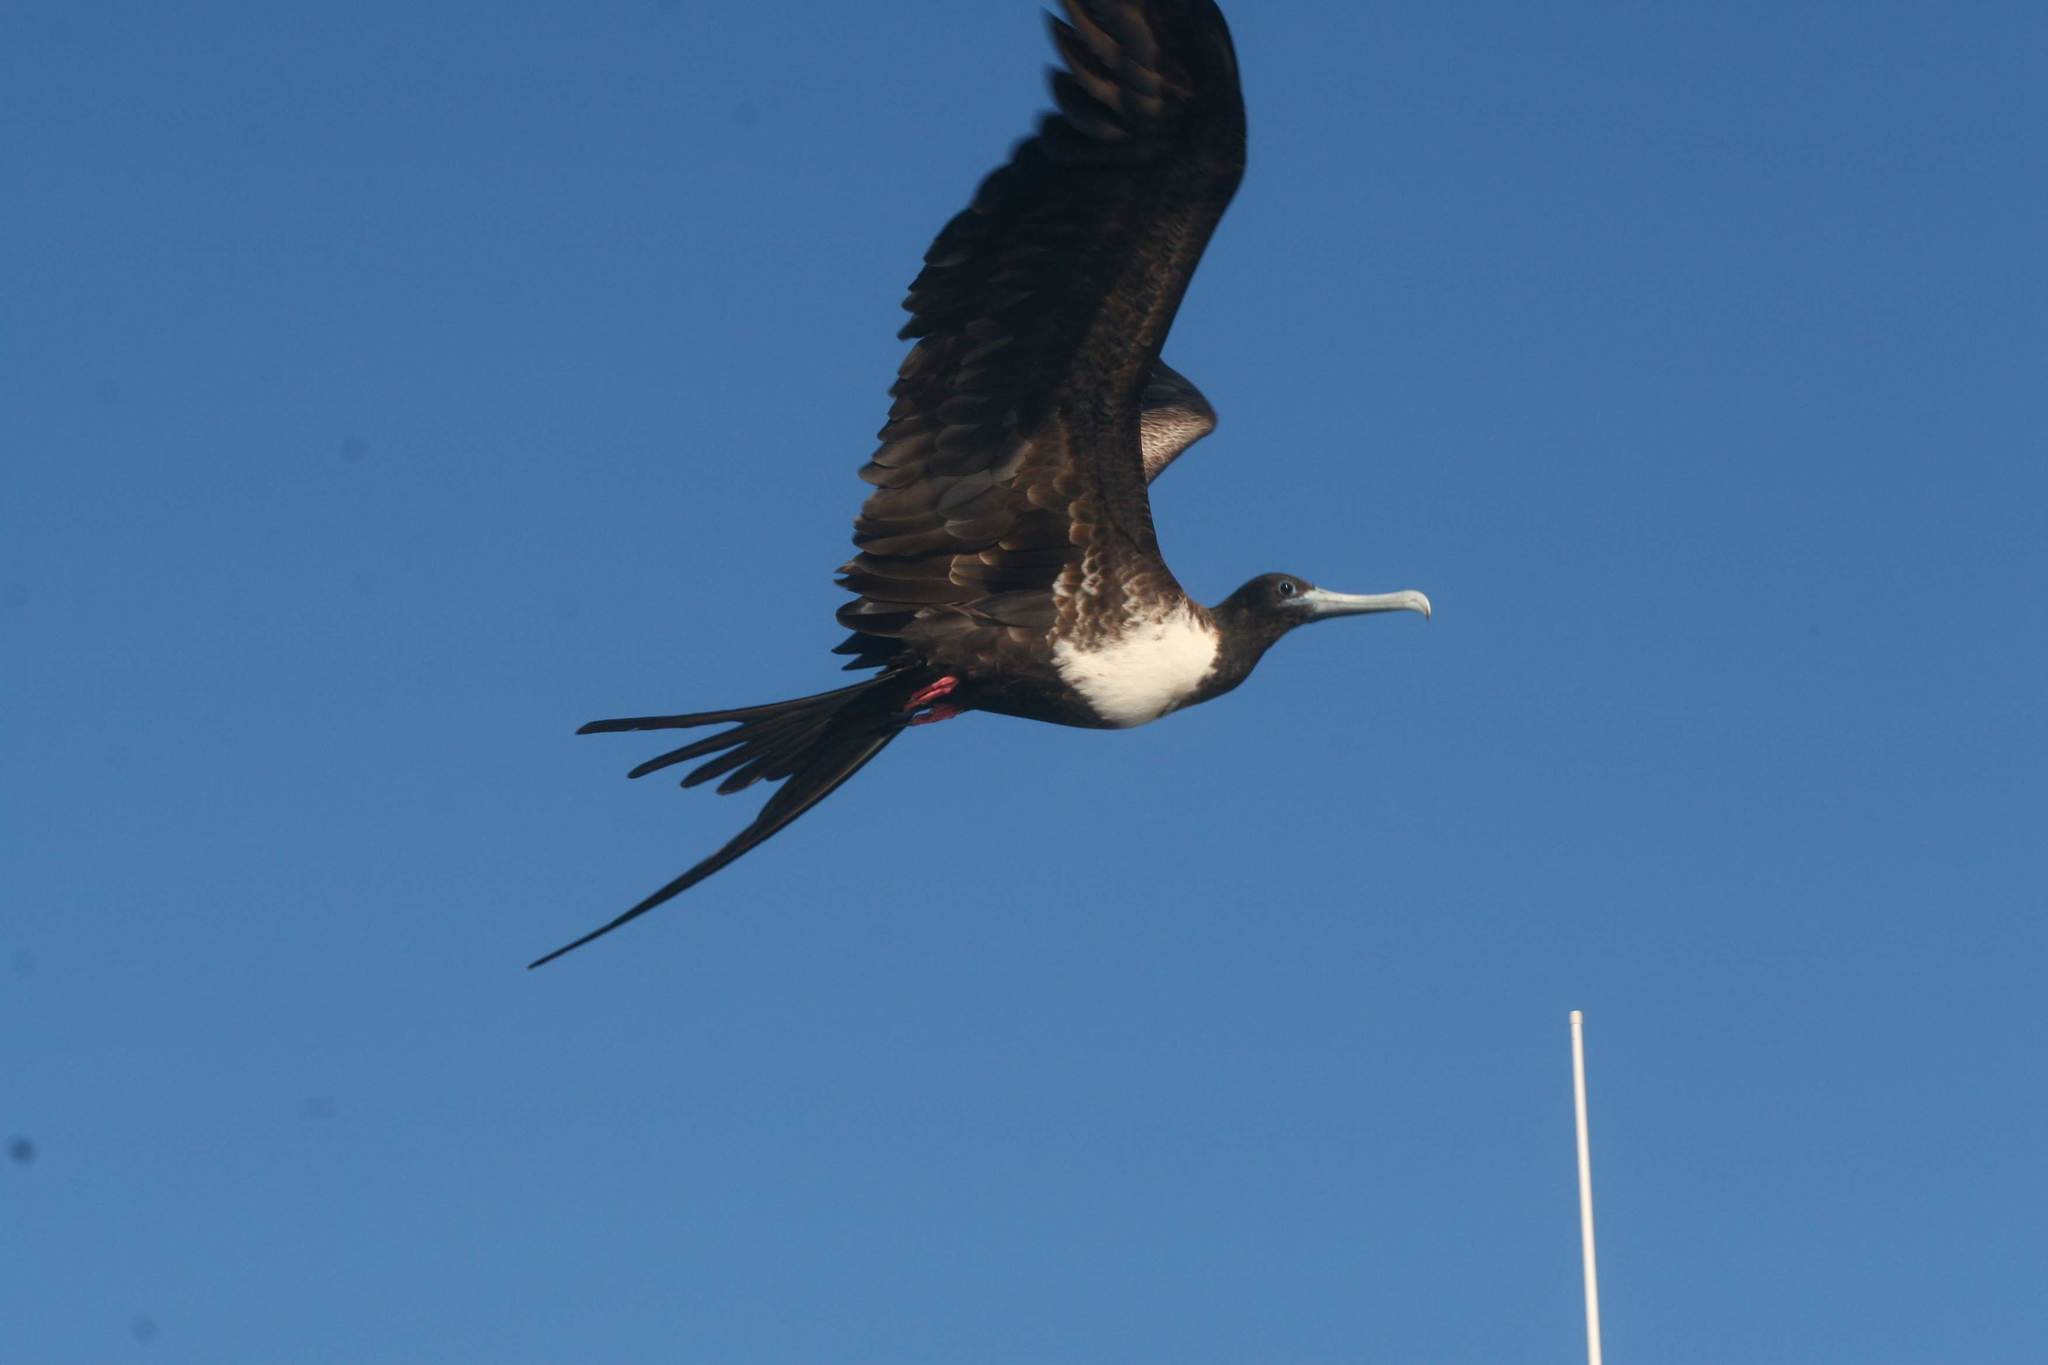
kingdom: Animalia
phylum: Chordata
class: Aves
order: Suliformes
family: Fregatidae
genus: Fregata
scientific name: Fregata magnificens
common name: Magnificent frigatebird
